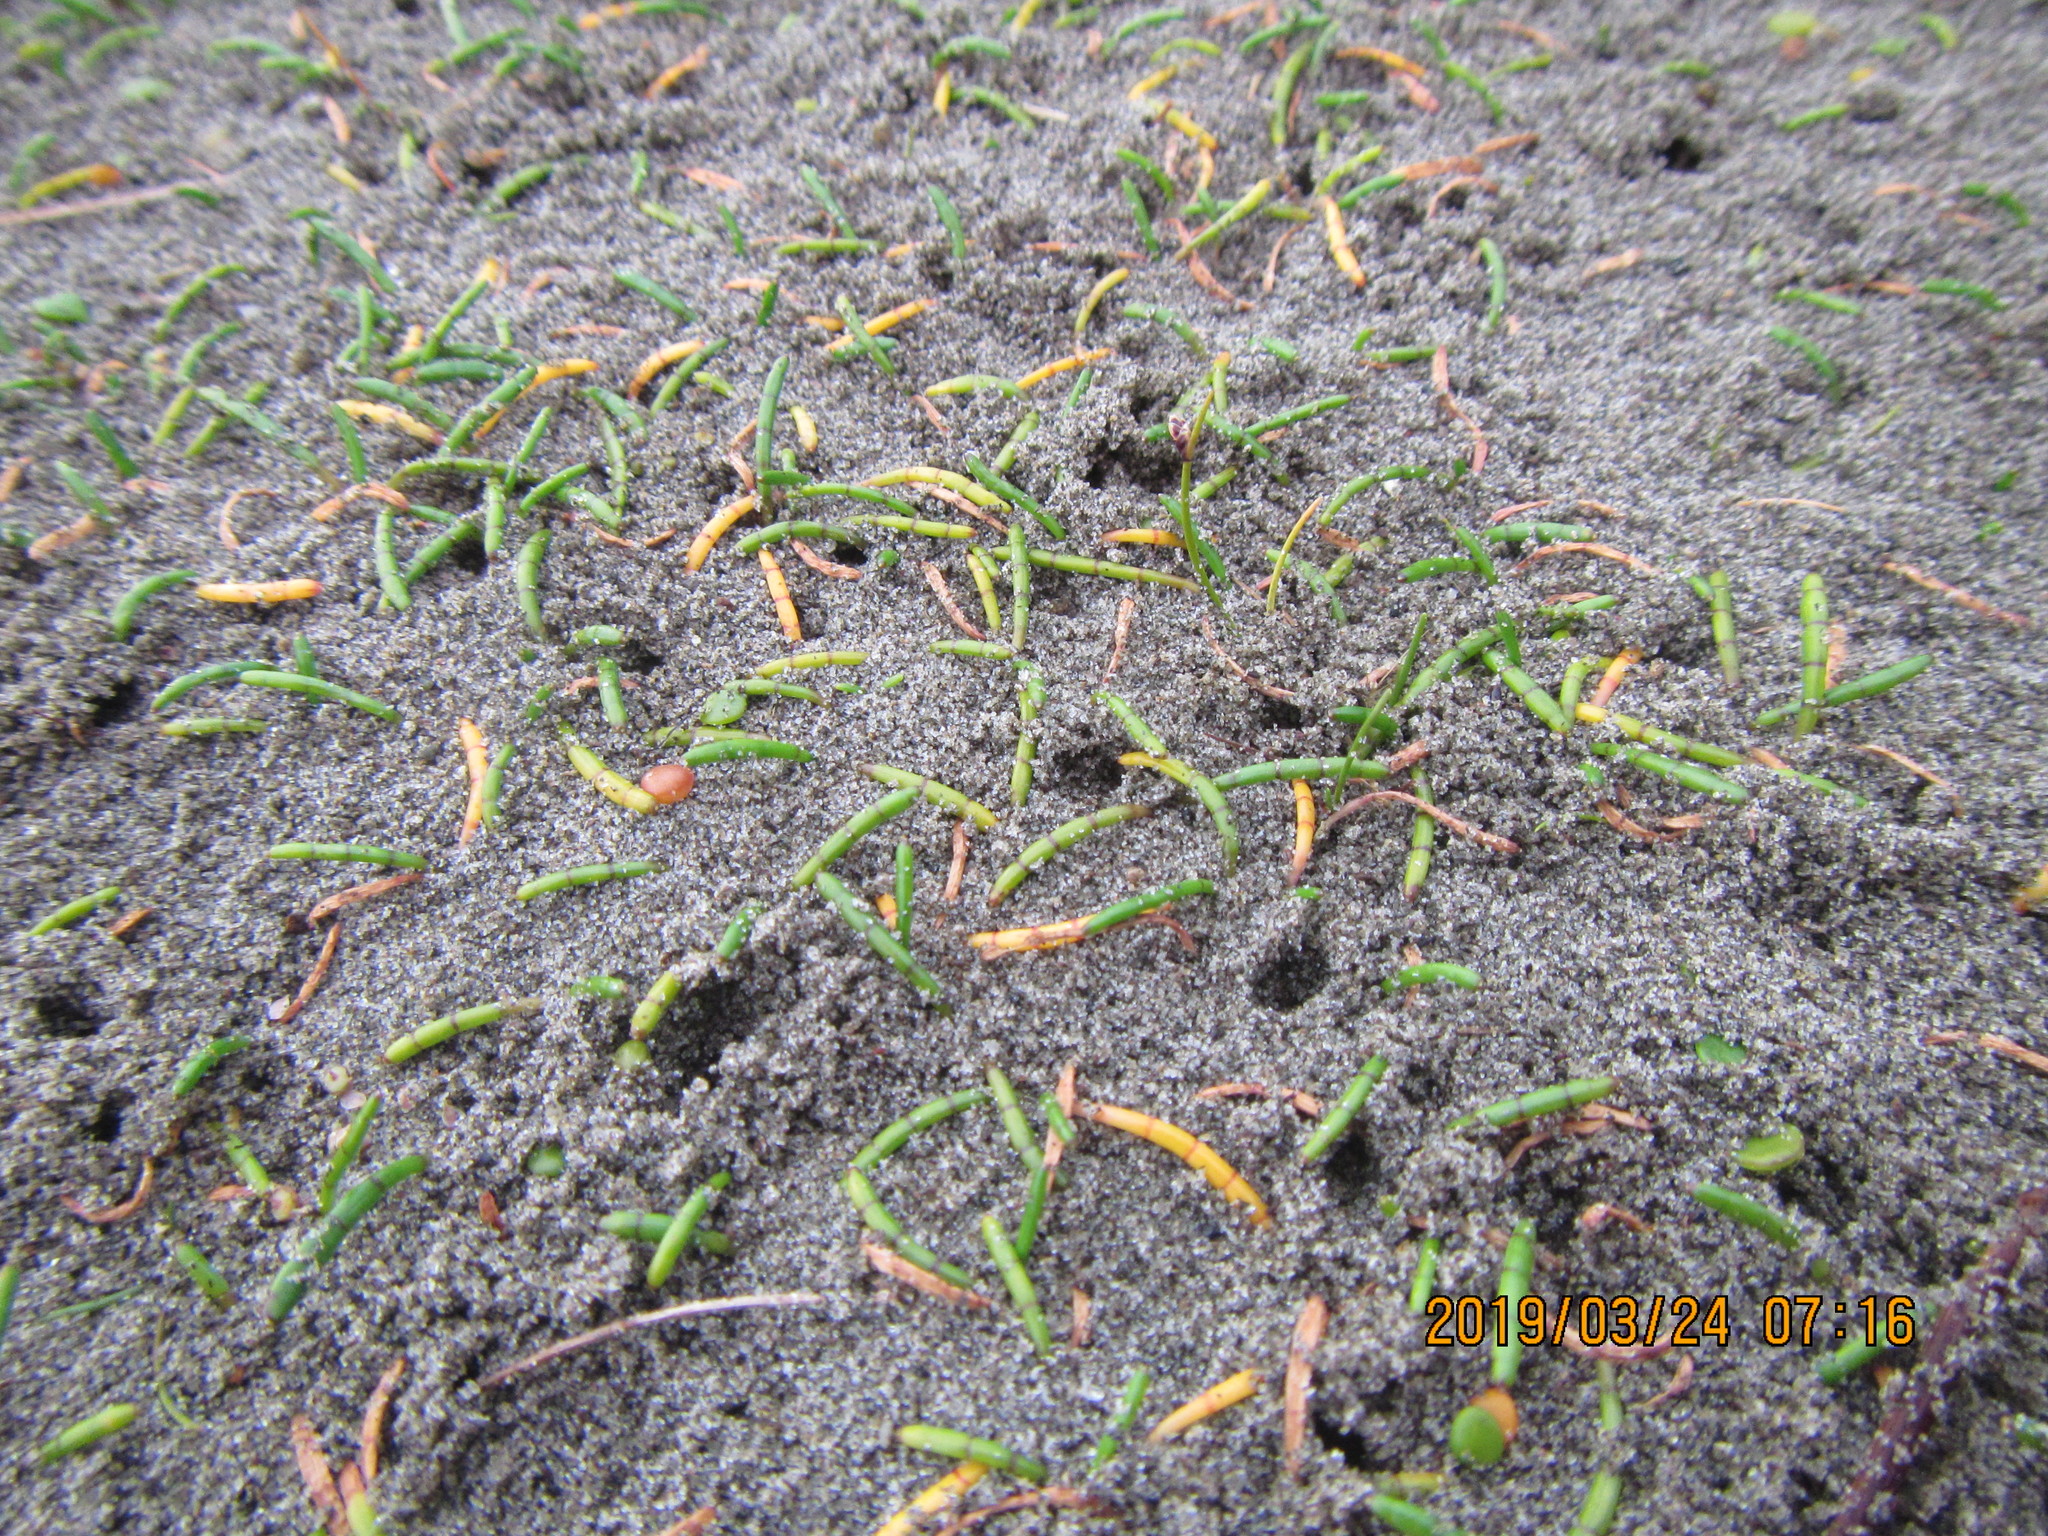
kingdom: Plantae
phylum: Tracheophyta
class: Magnoliopsida
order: Apiales
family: Apiaceae
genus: Lilaeopsis
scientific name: Lilaeopsis novae-zelandiae
